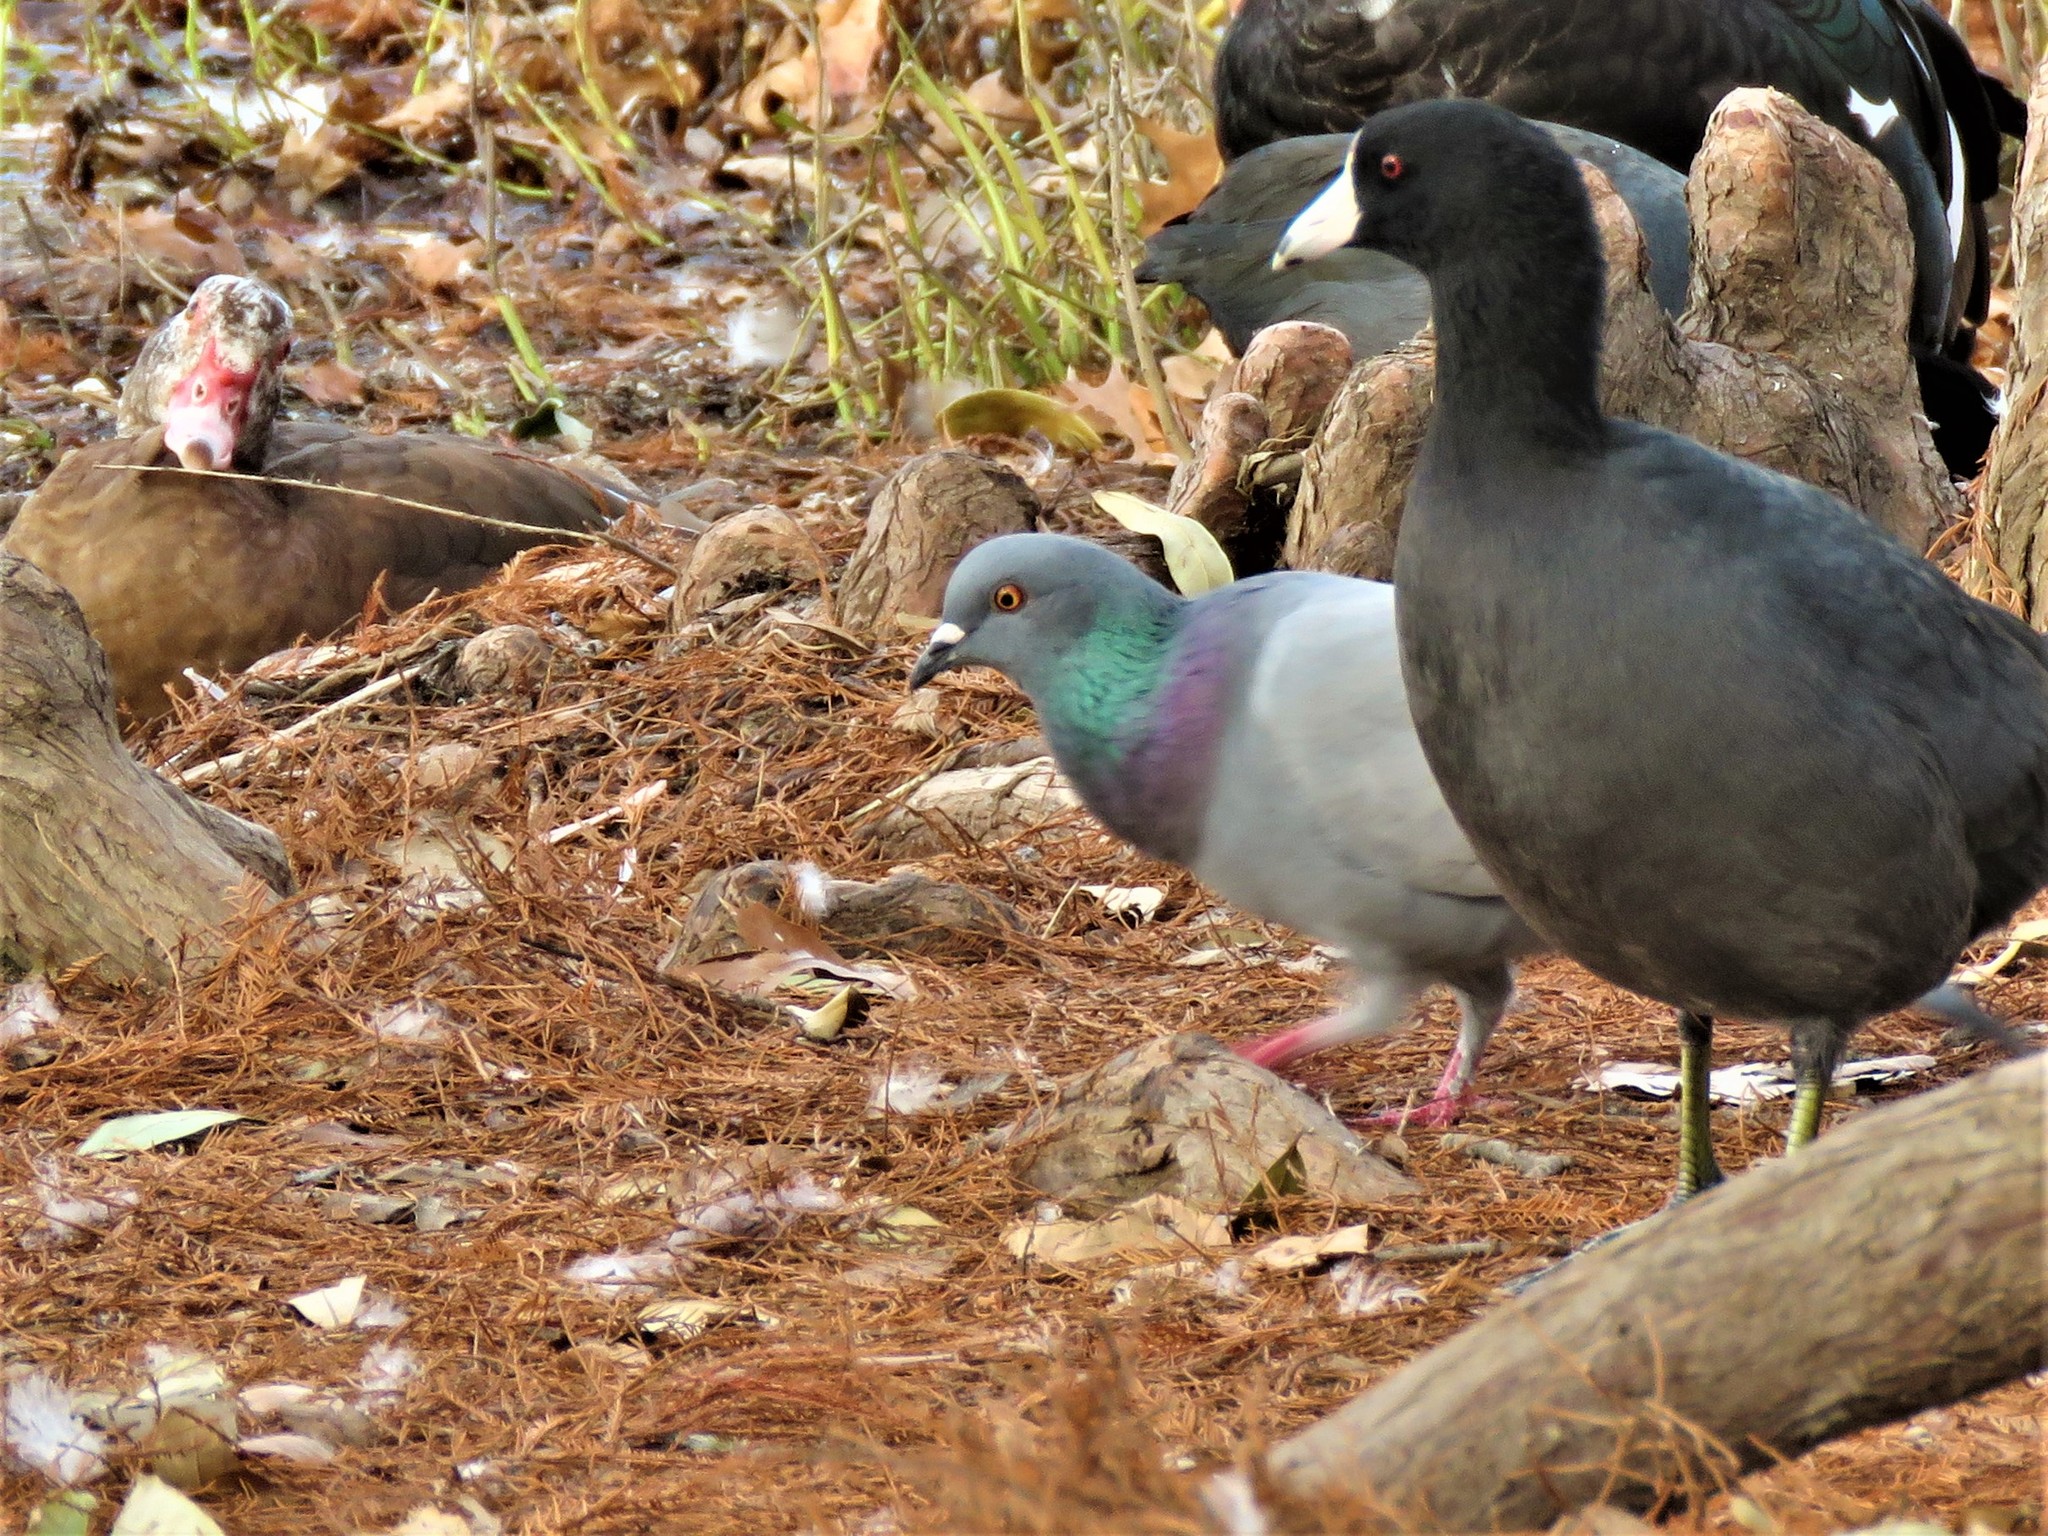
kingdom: Animalia
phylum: Chordata
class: Aves
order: Columbiformes
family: Columbidae
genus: Columba
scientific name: Columba livia
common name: Rock pigeon
